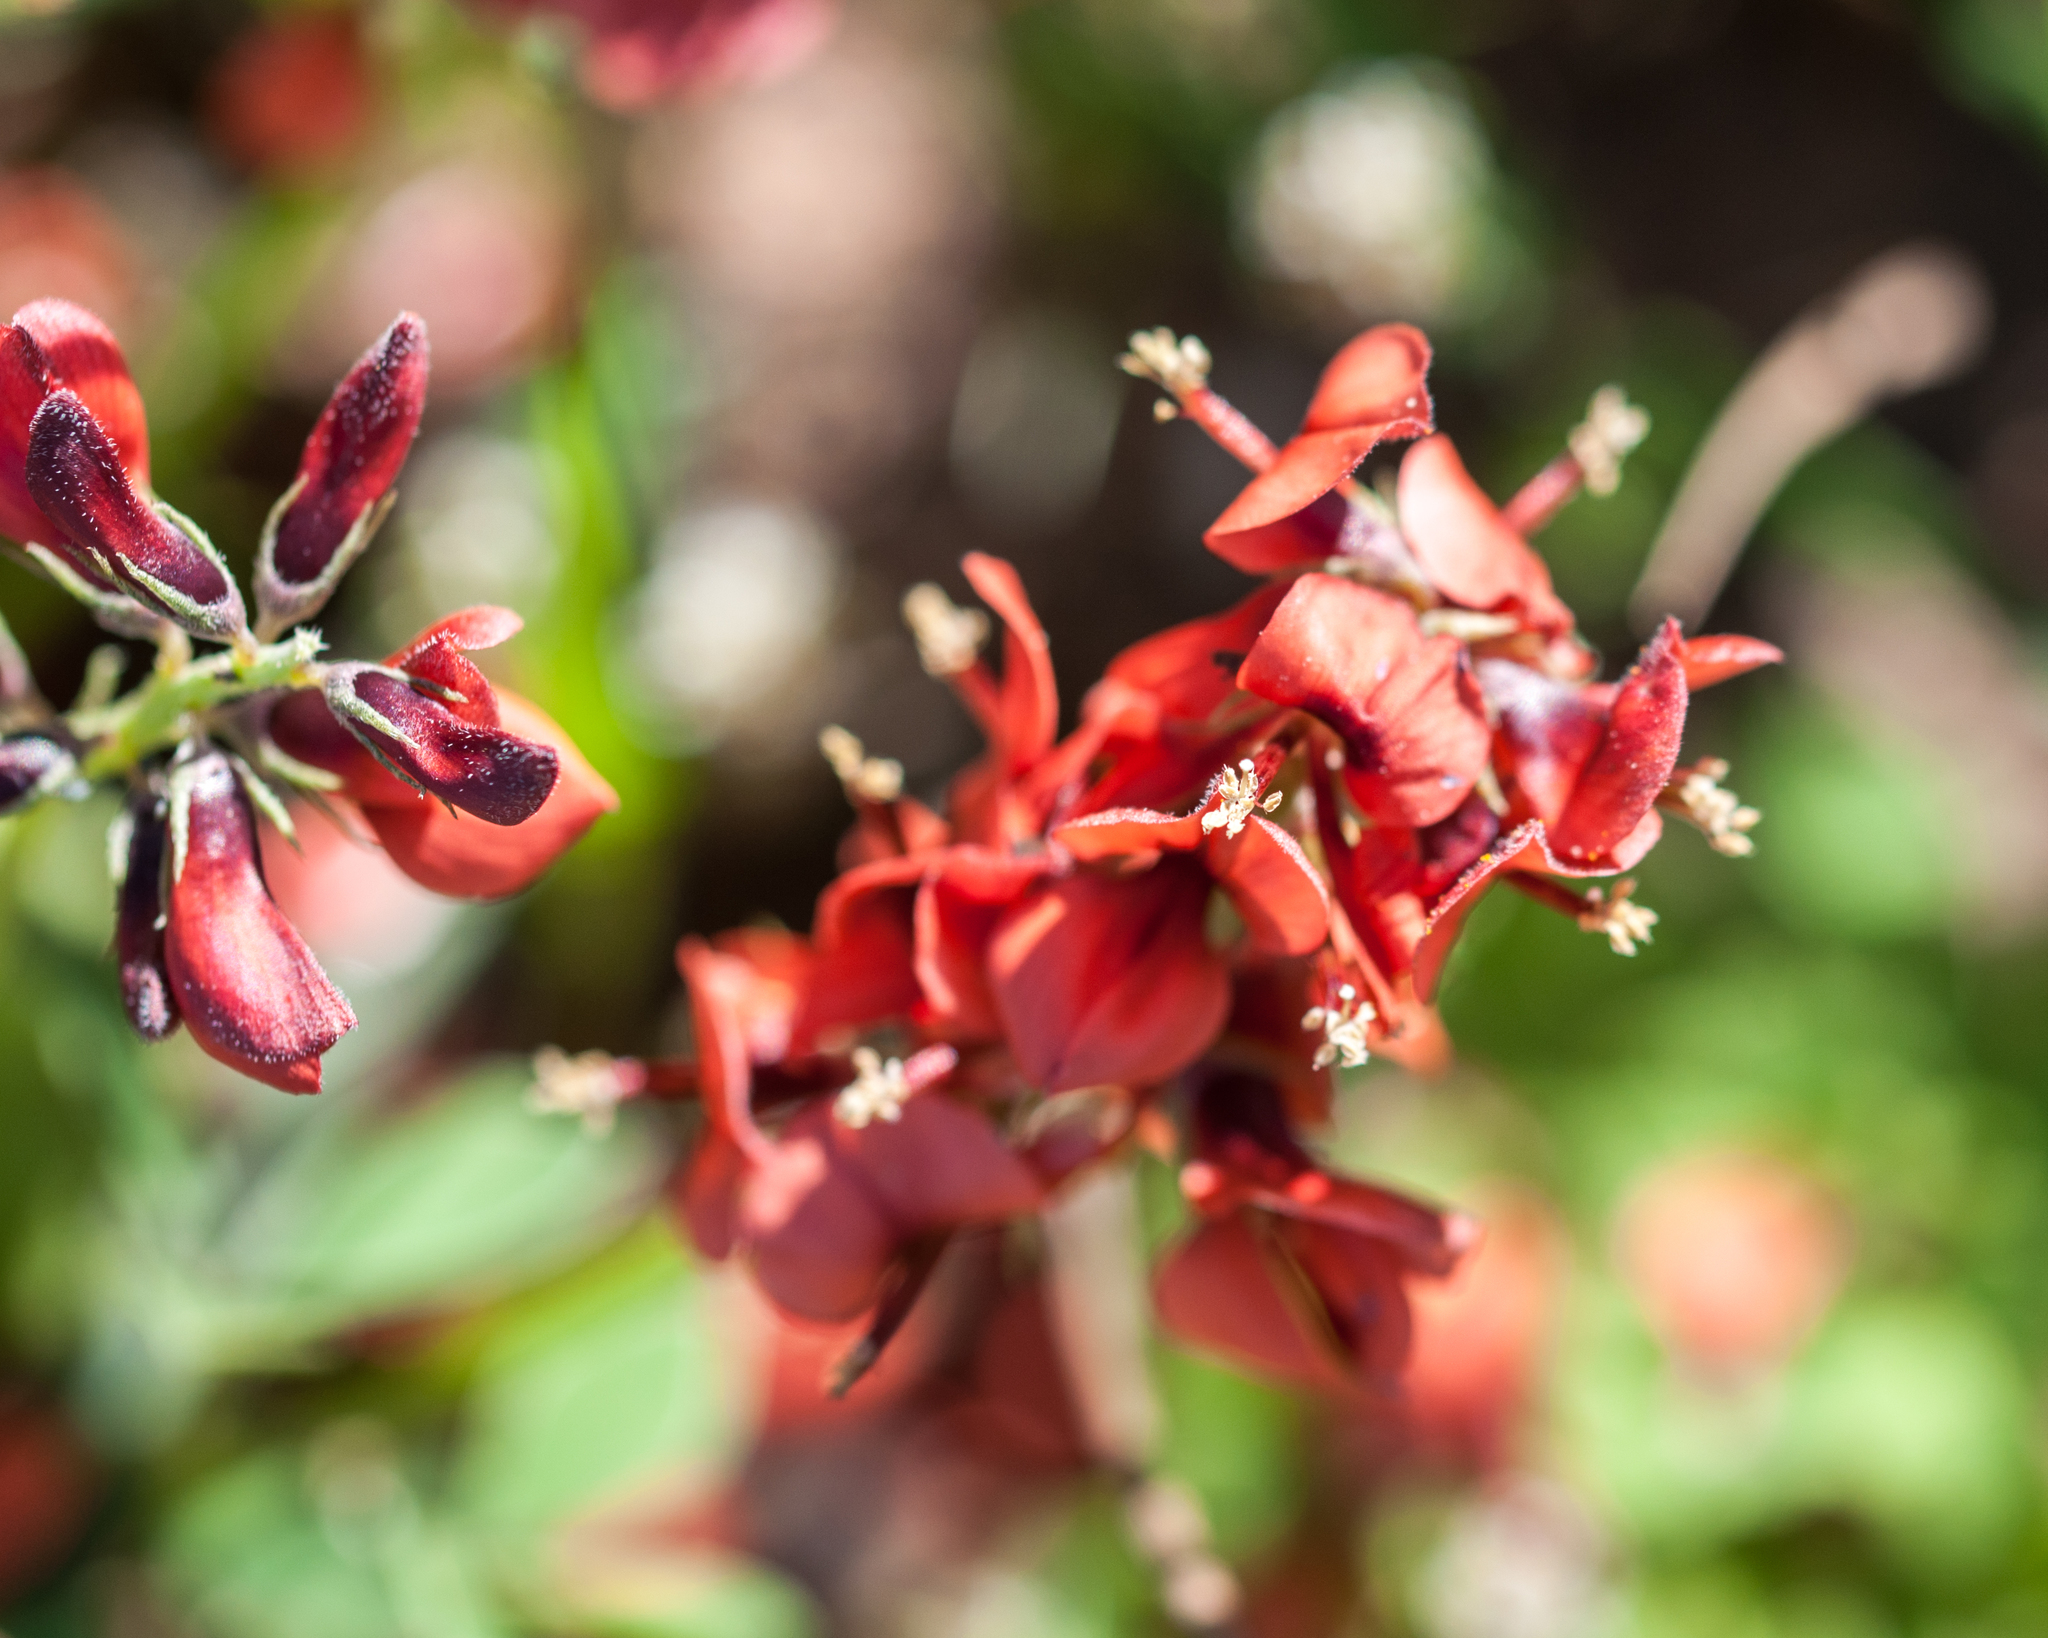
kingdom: Plantae
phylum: Tracheophyta
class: Magnoliopsida
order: Fabales
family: Fabaceae
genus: Indigofera
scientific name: Indigofera discolor
